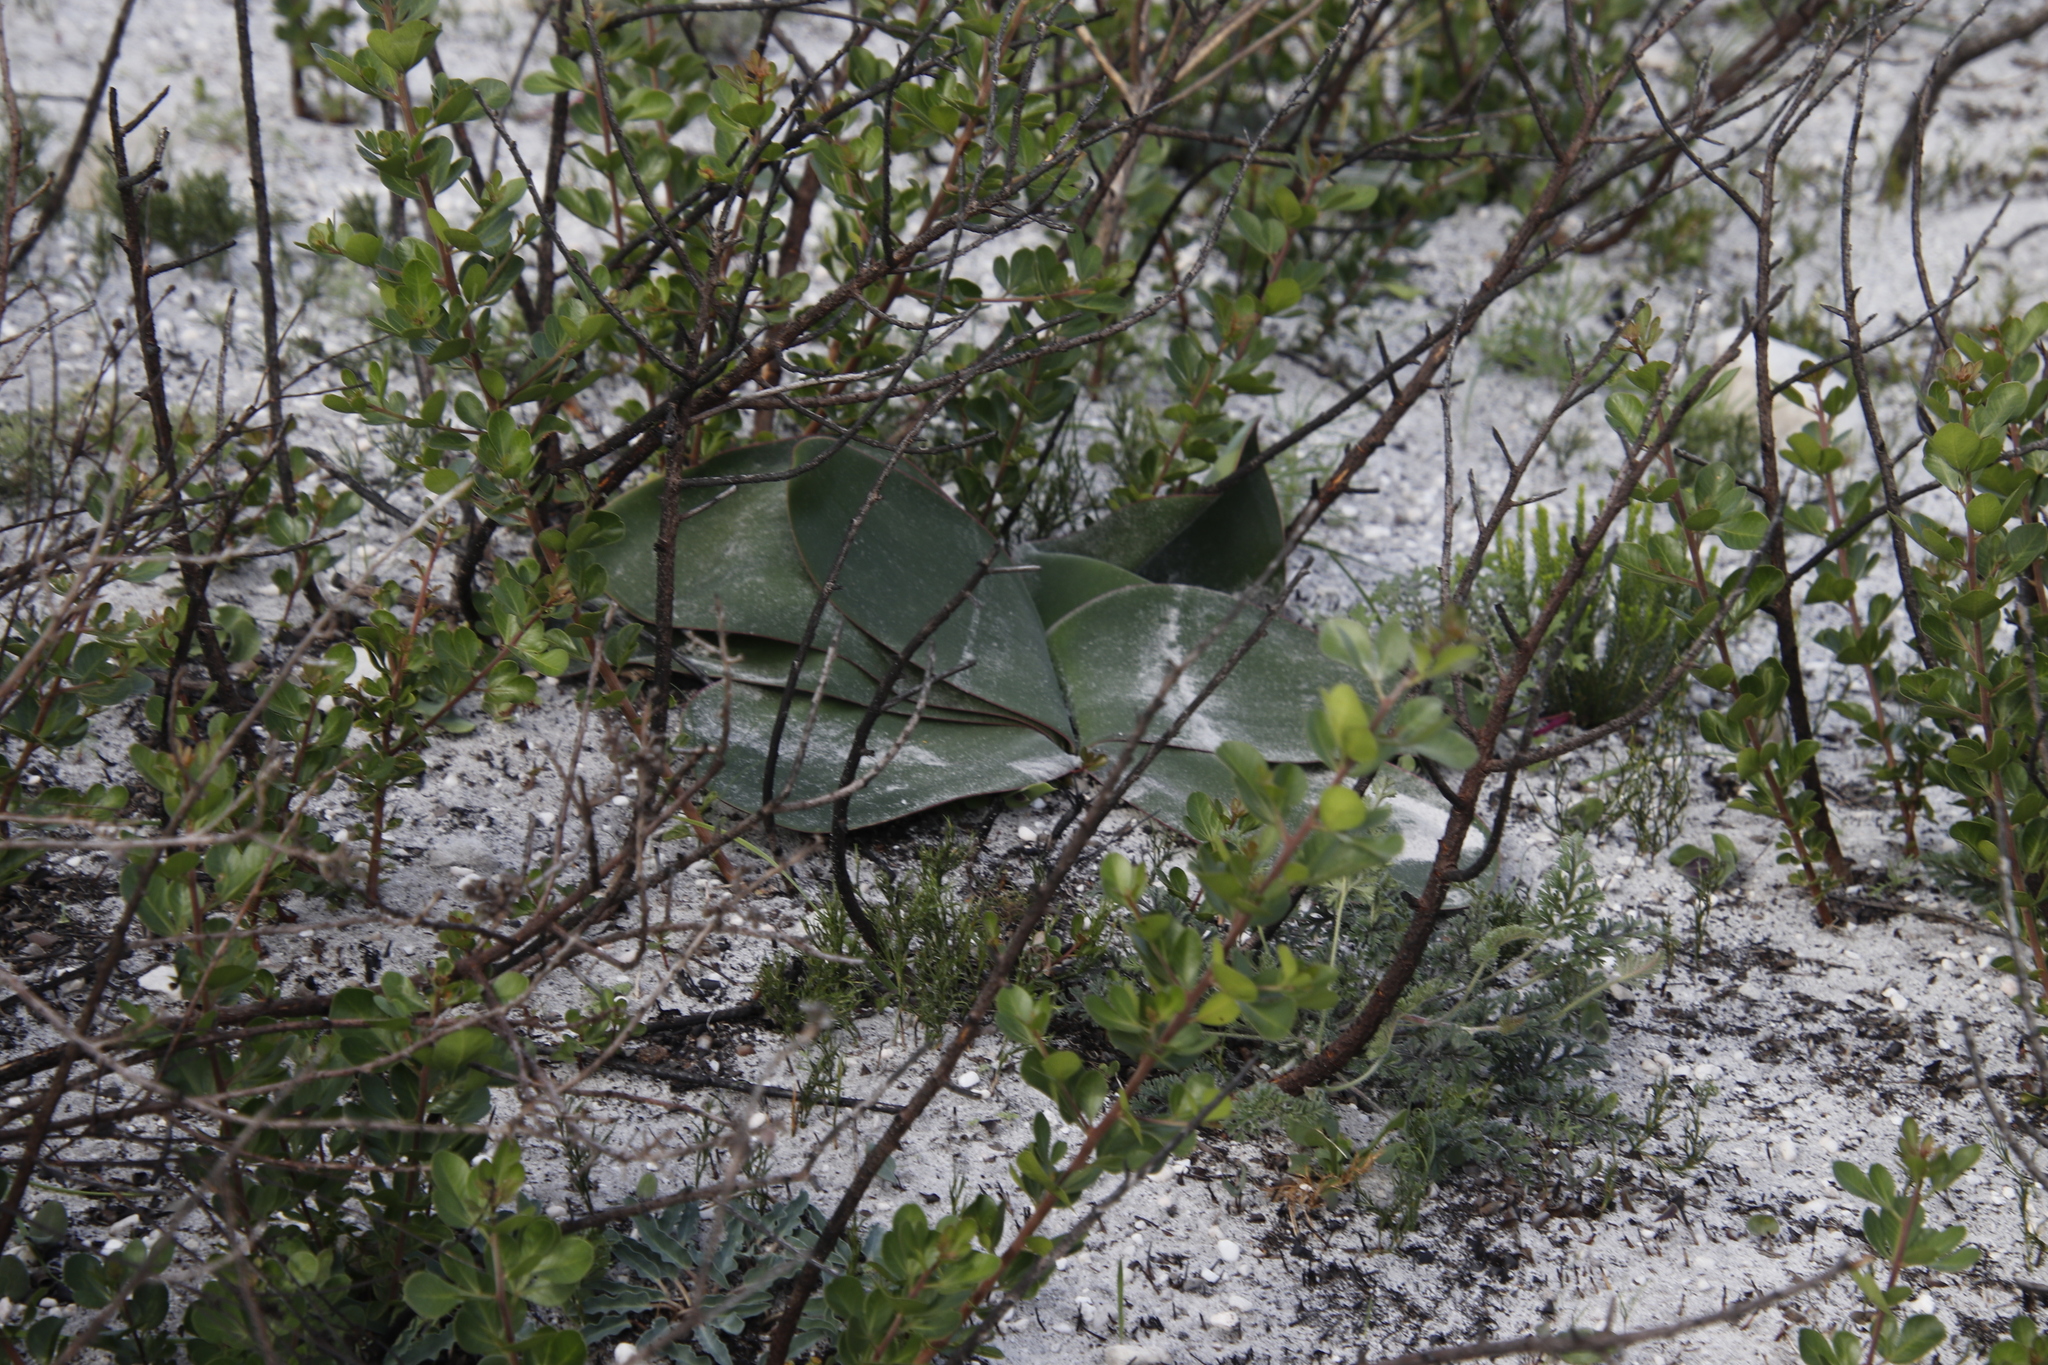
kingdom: Plantae
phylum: Tracheophyta
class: Liliopsida
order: Asparagales
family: Amaryllidaceae
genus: Brunsvigia
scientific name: Brunsvigia orientalis
